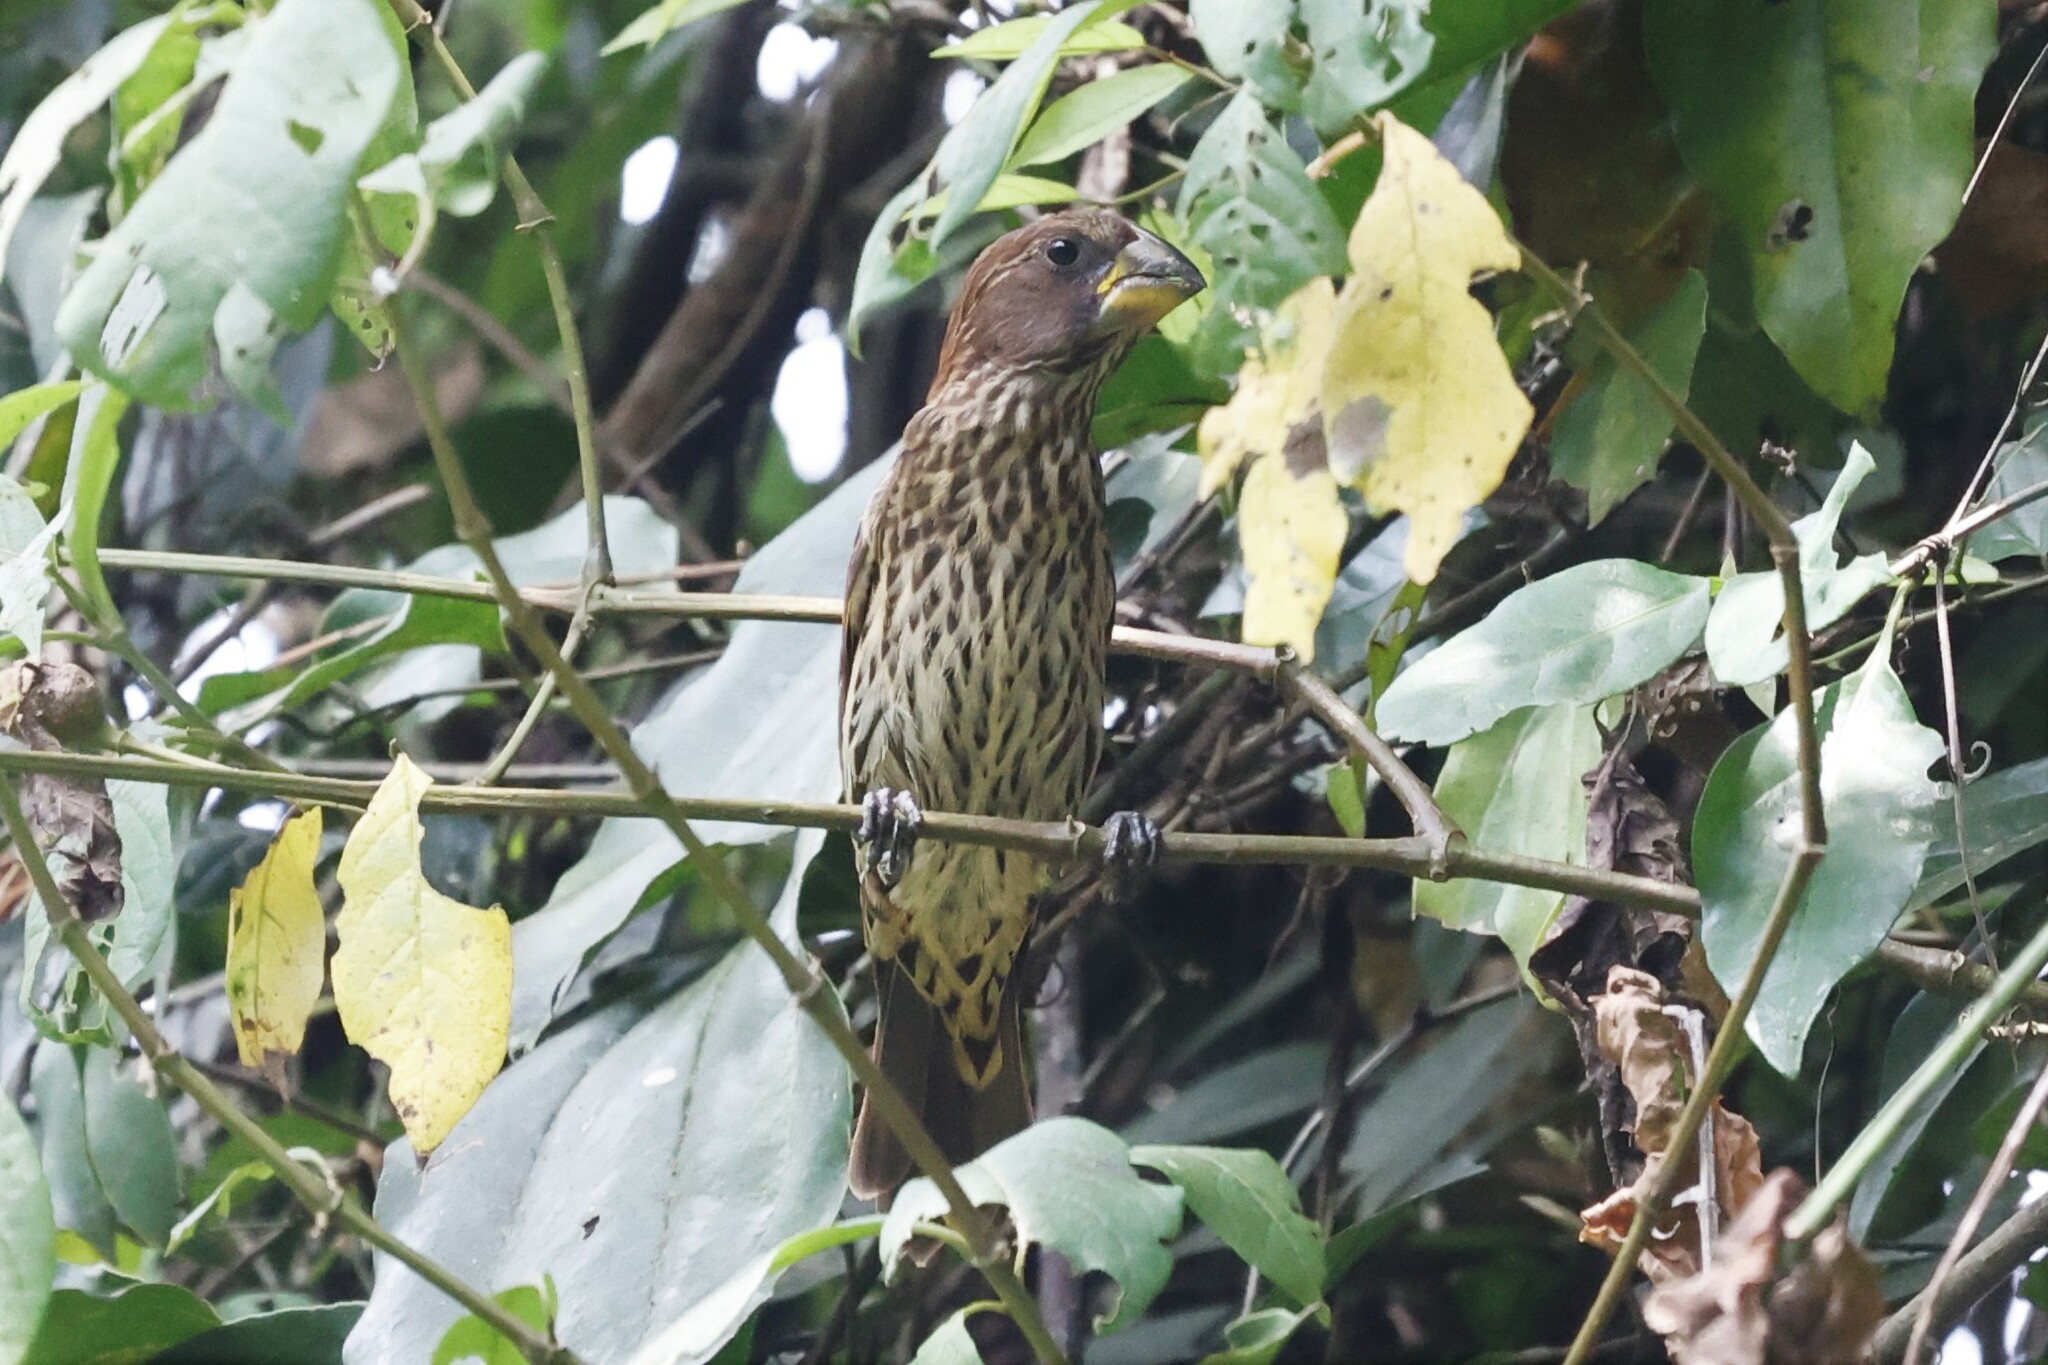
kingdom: Animalia
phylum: Chordata
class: Aves
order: Passeriformes
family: Ploceidae
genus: Amblyospiza
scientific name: Amblyospiza albifrons
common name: Thick-billed weaver
